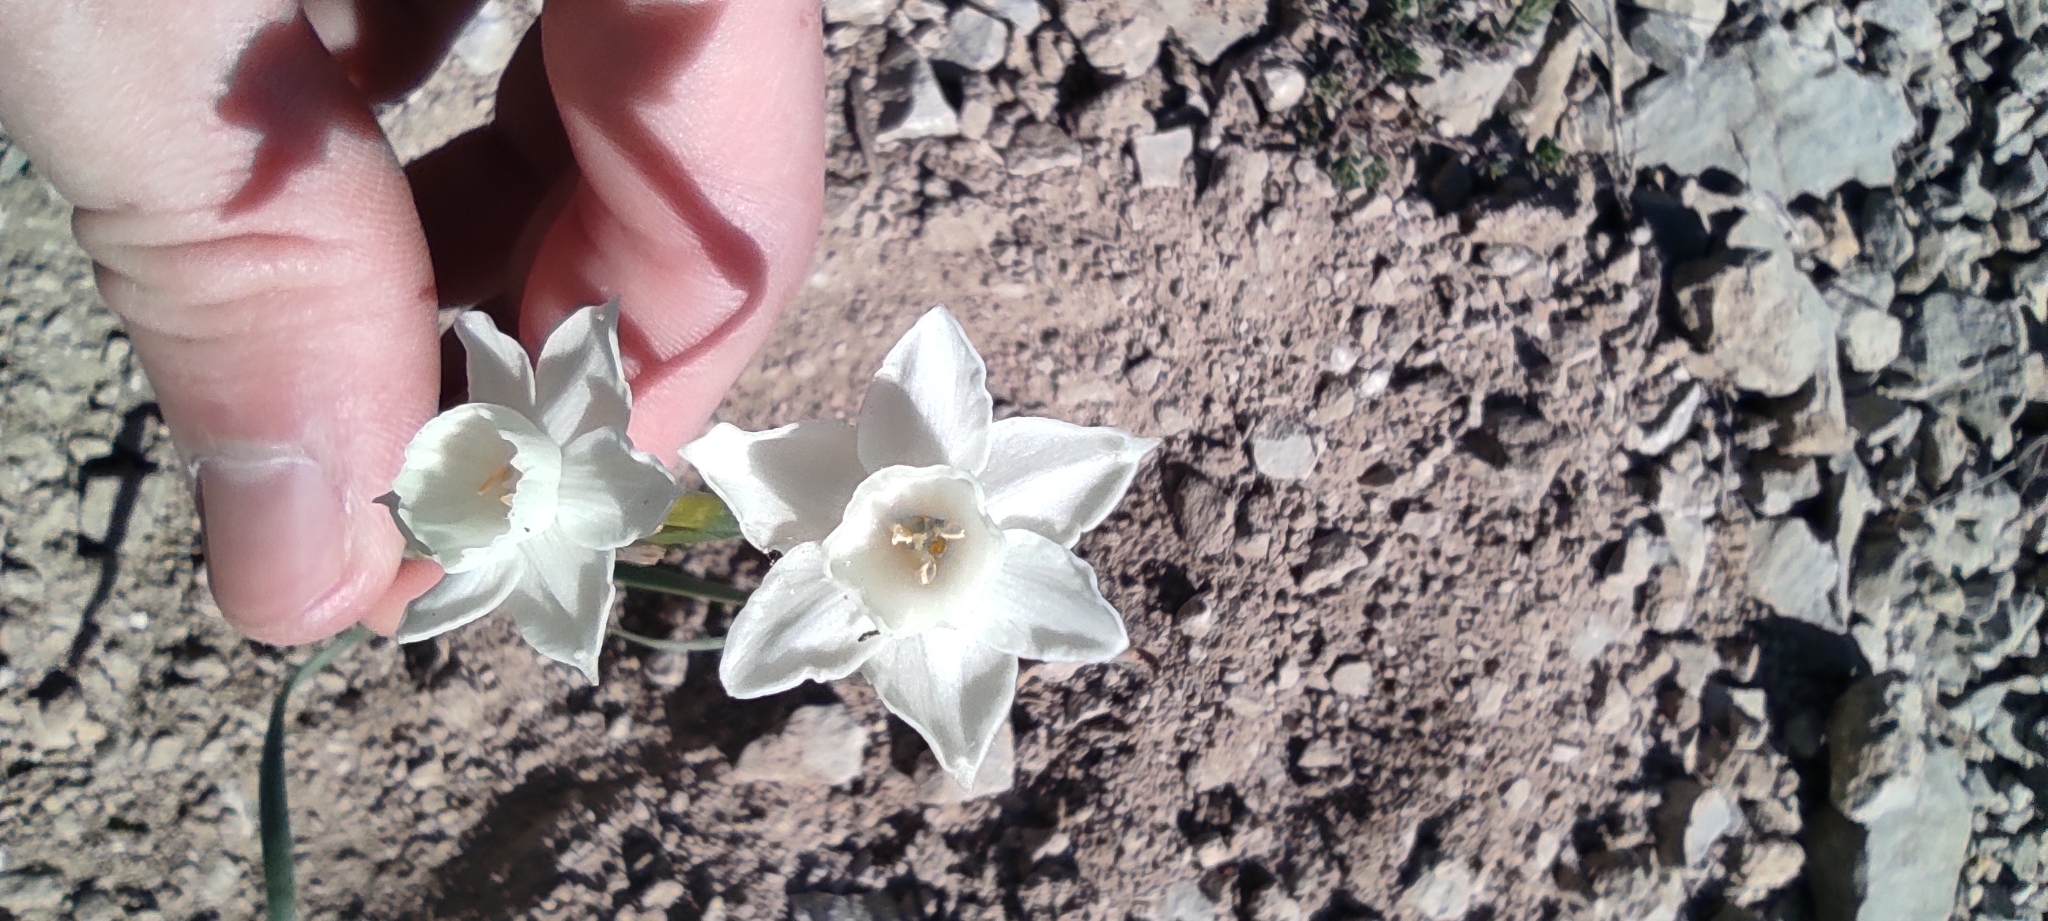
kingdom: Plantae
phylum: Tracheophyta
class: Liliopsida
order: Asparagales
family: Amaryllidaceae
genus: Narcissus
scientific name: Narcissus dubius
